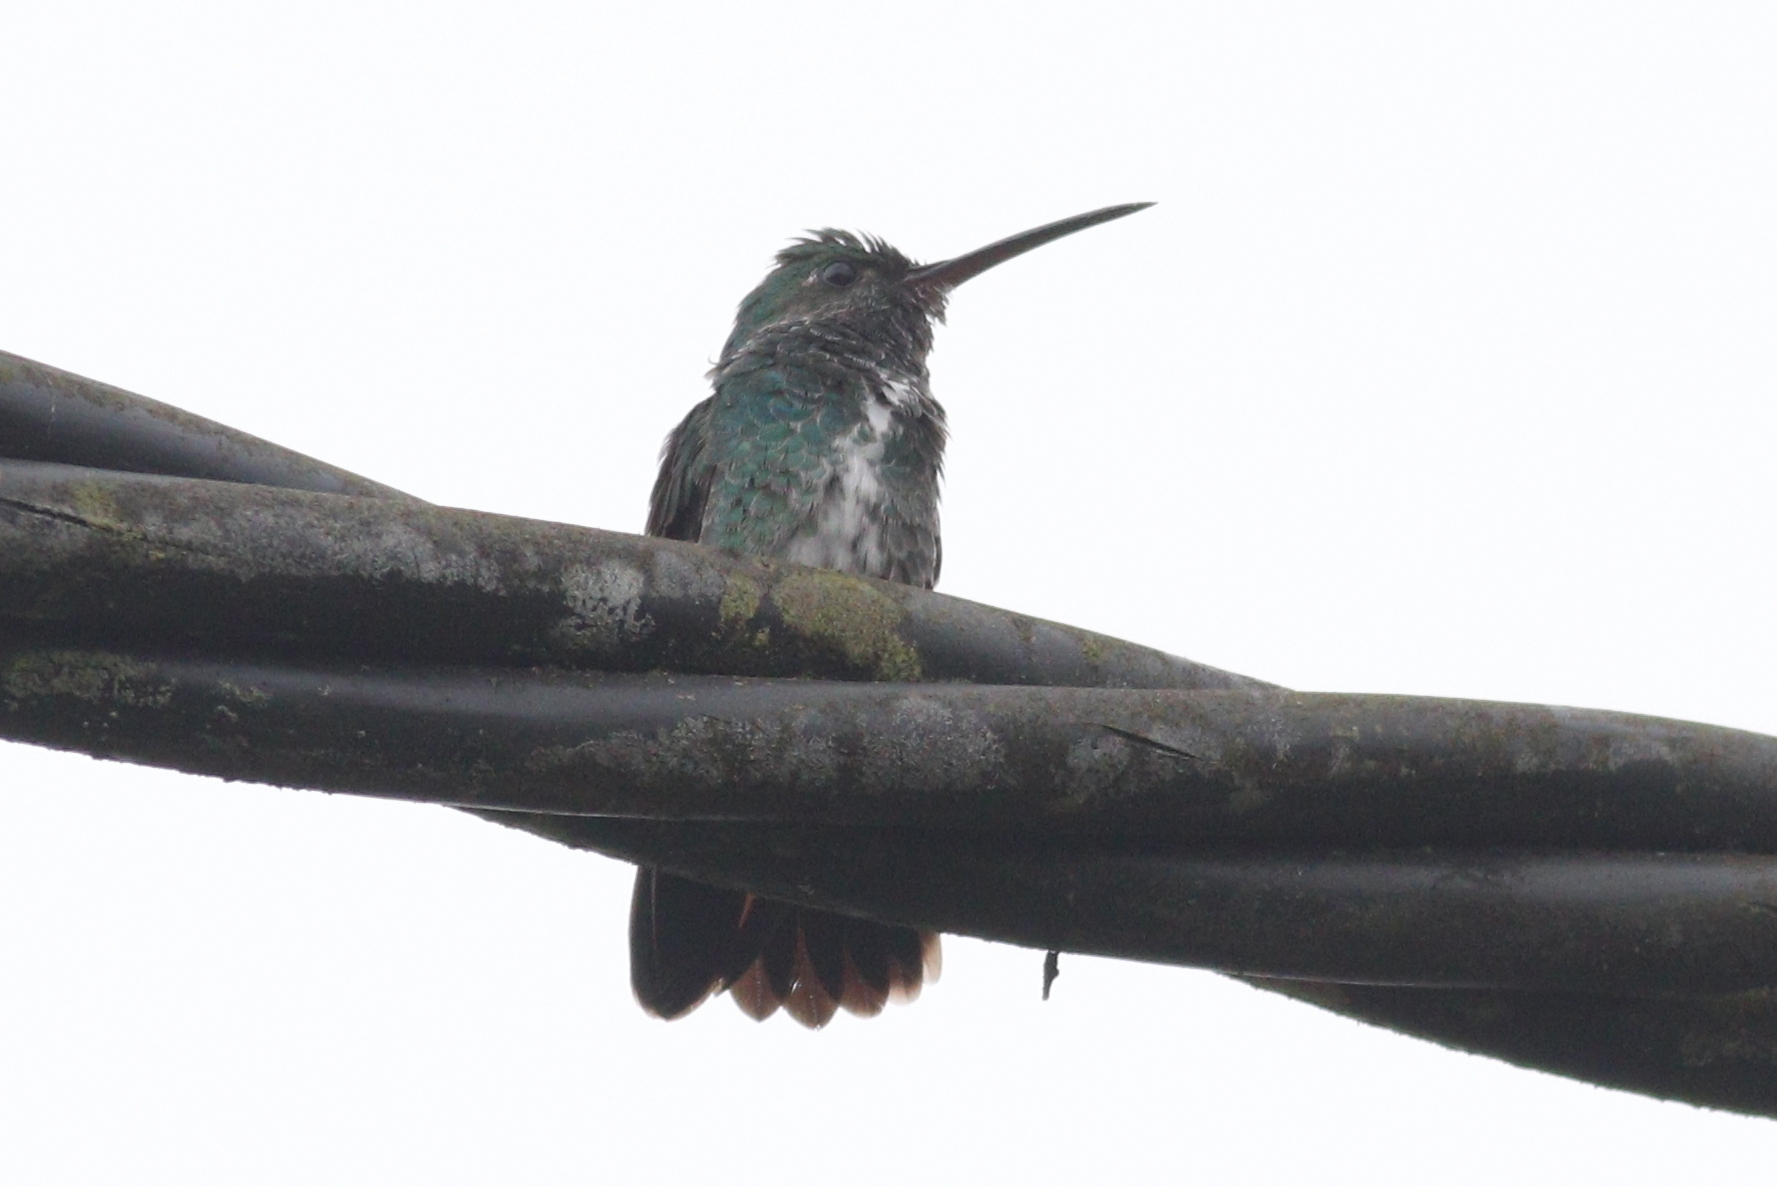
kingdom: Animalia
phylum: Chordata
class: Aves
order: Apodiformes
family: Trochilidae
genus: Chionomesa
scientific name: Chionomesa fimbriata
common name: Glittering-throated emerald
